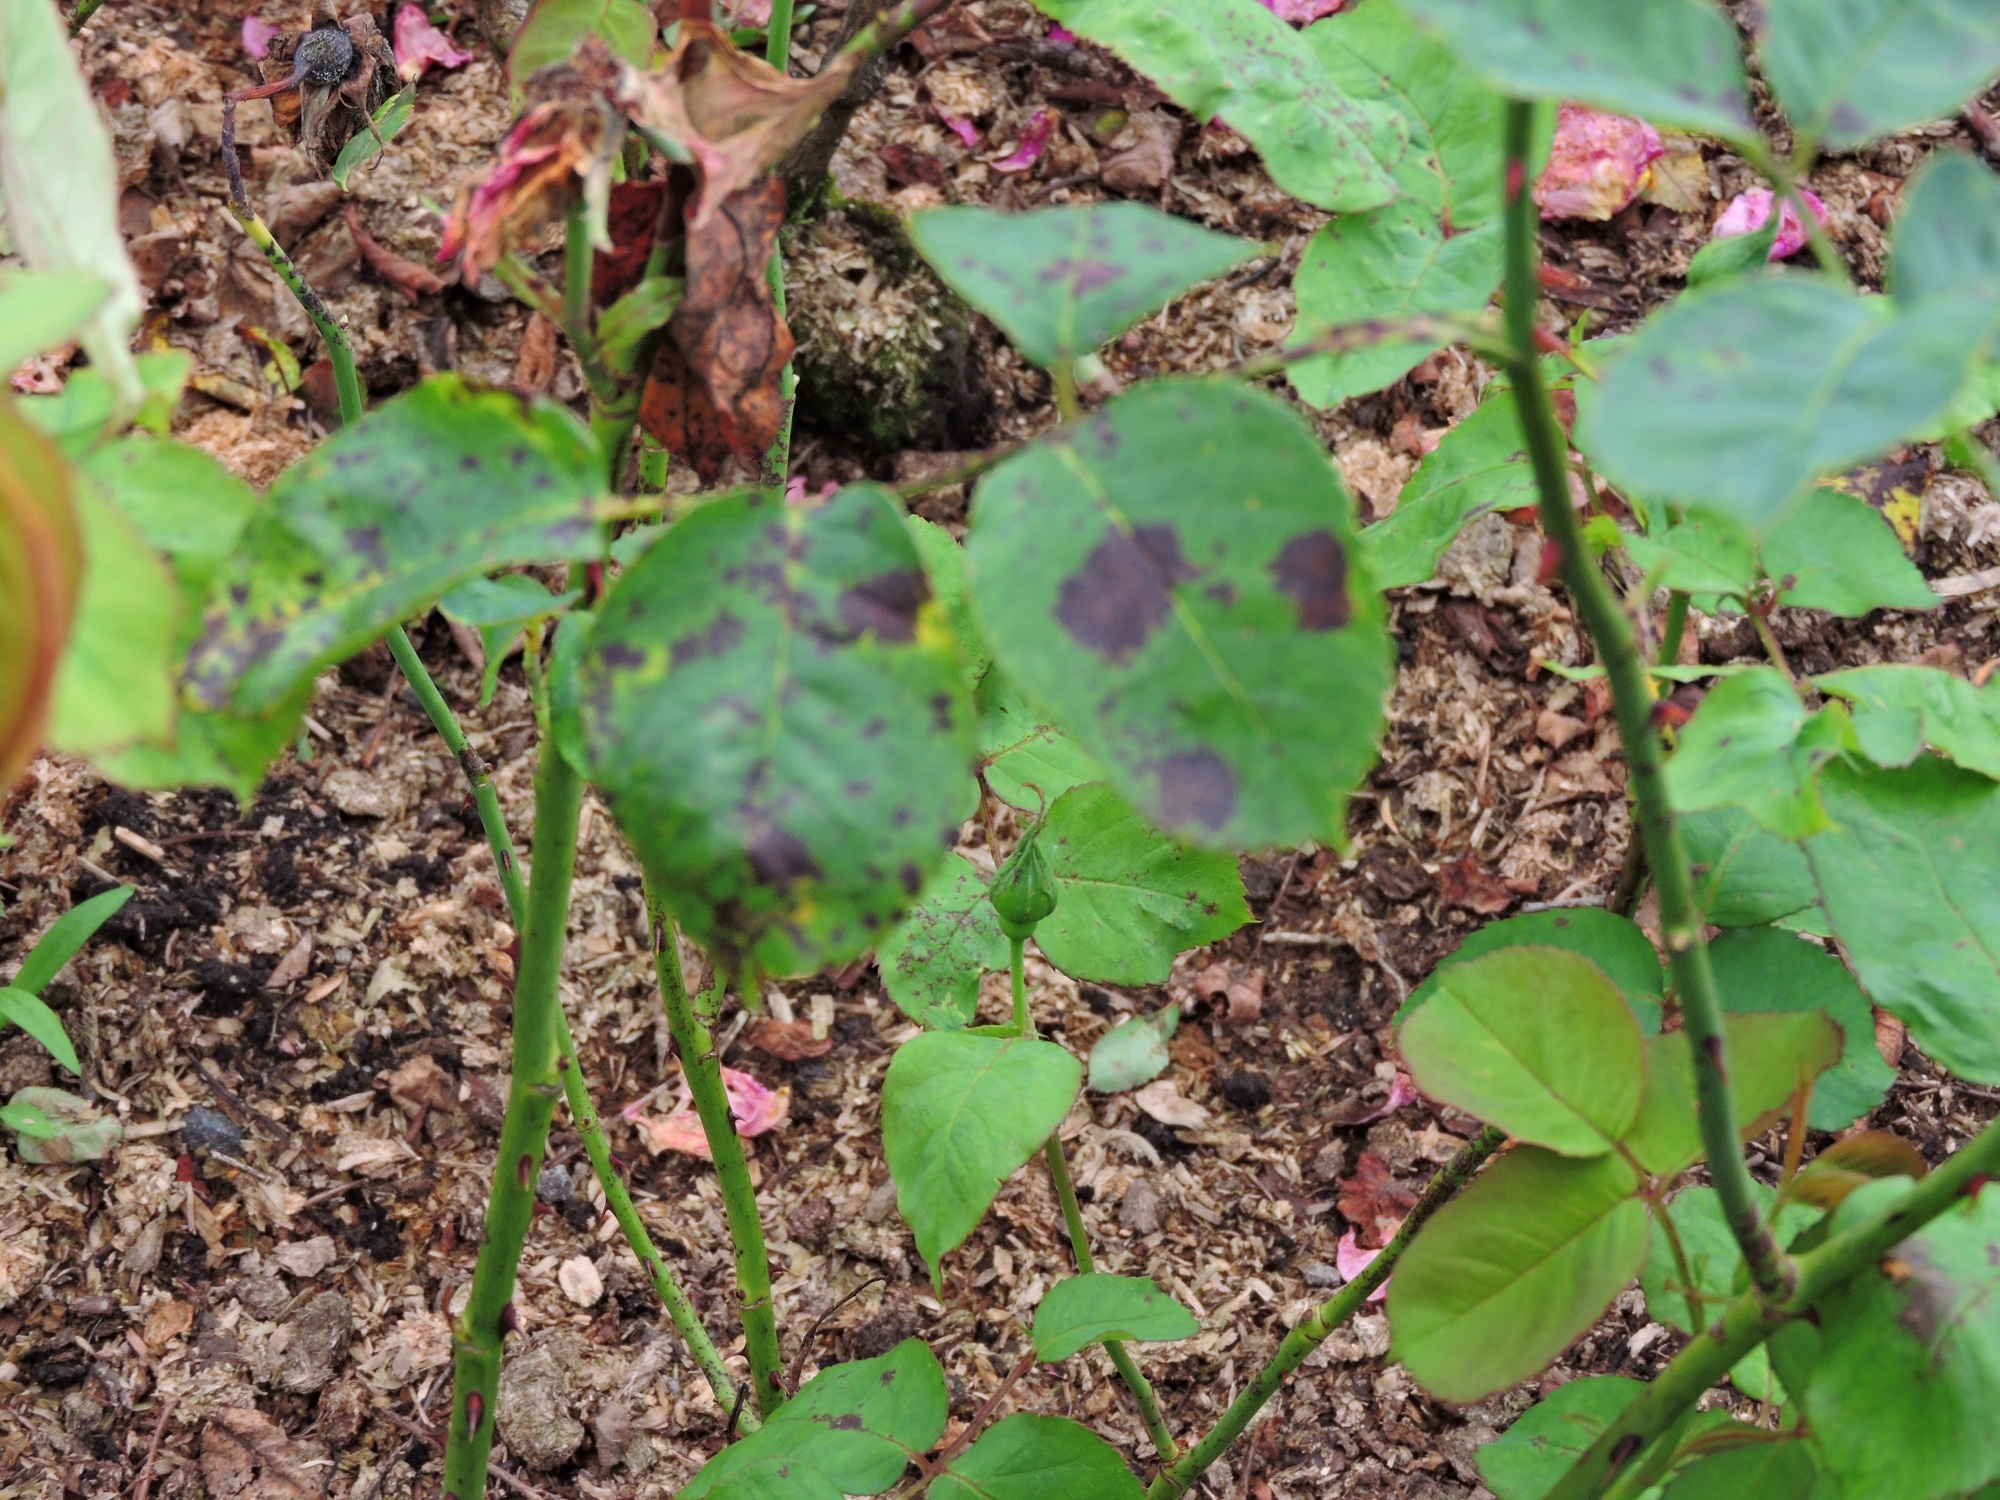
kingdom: Fungi
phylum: Ascomycota
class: Leotiomycetes
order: Helotiales
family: Drepanopezizaceae
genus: Diplocarpon
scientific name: Diplocarpon rosae
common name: Rose black-spot
